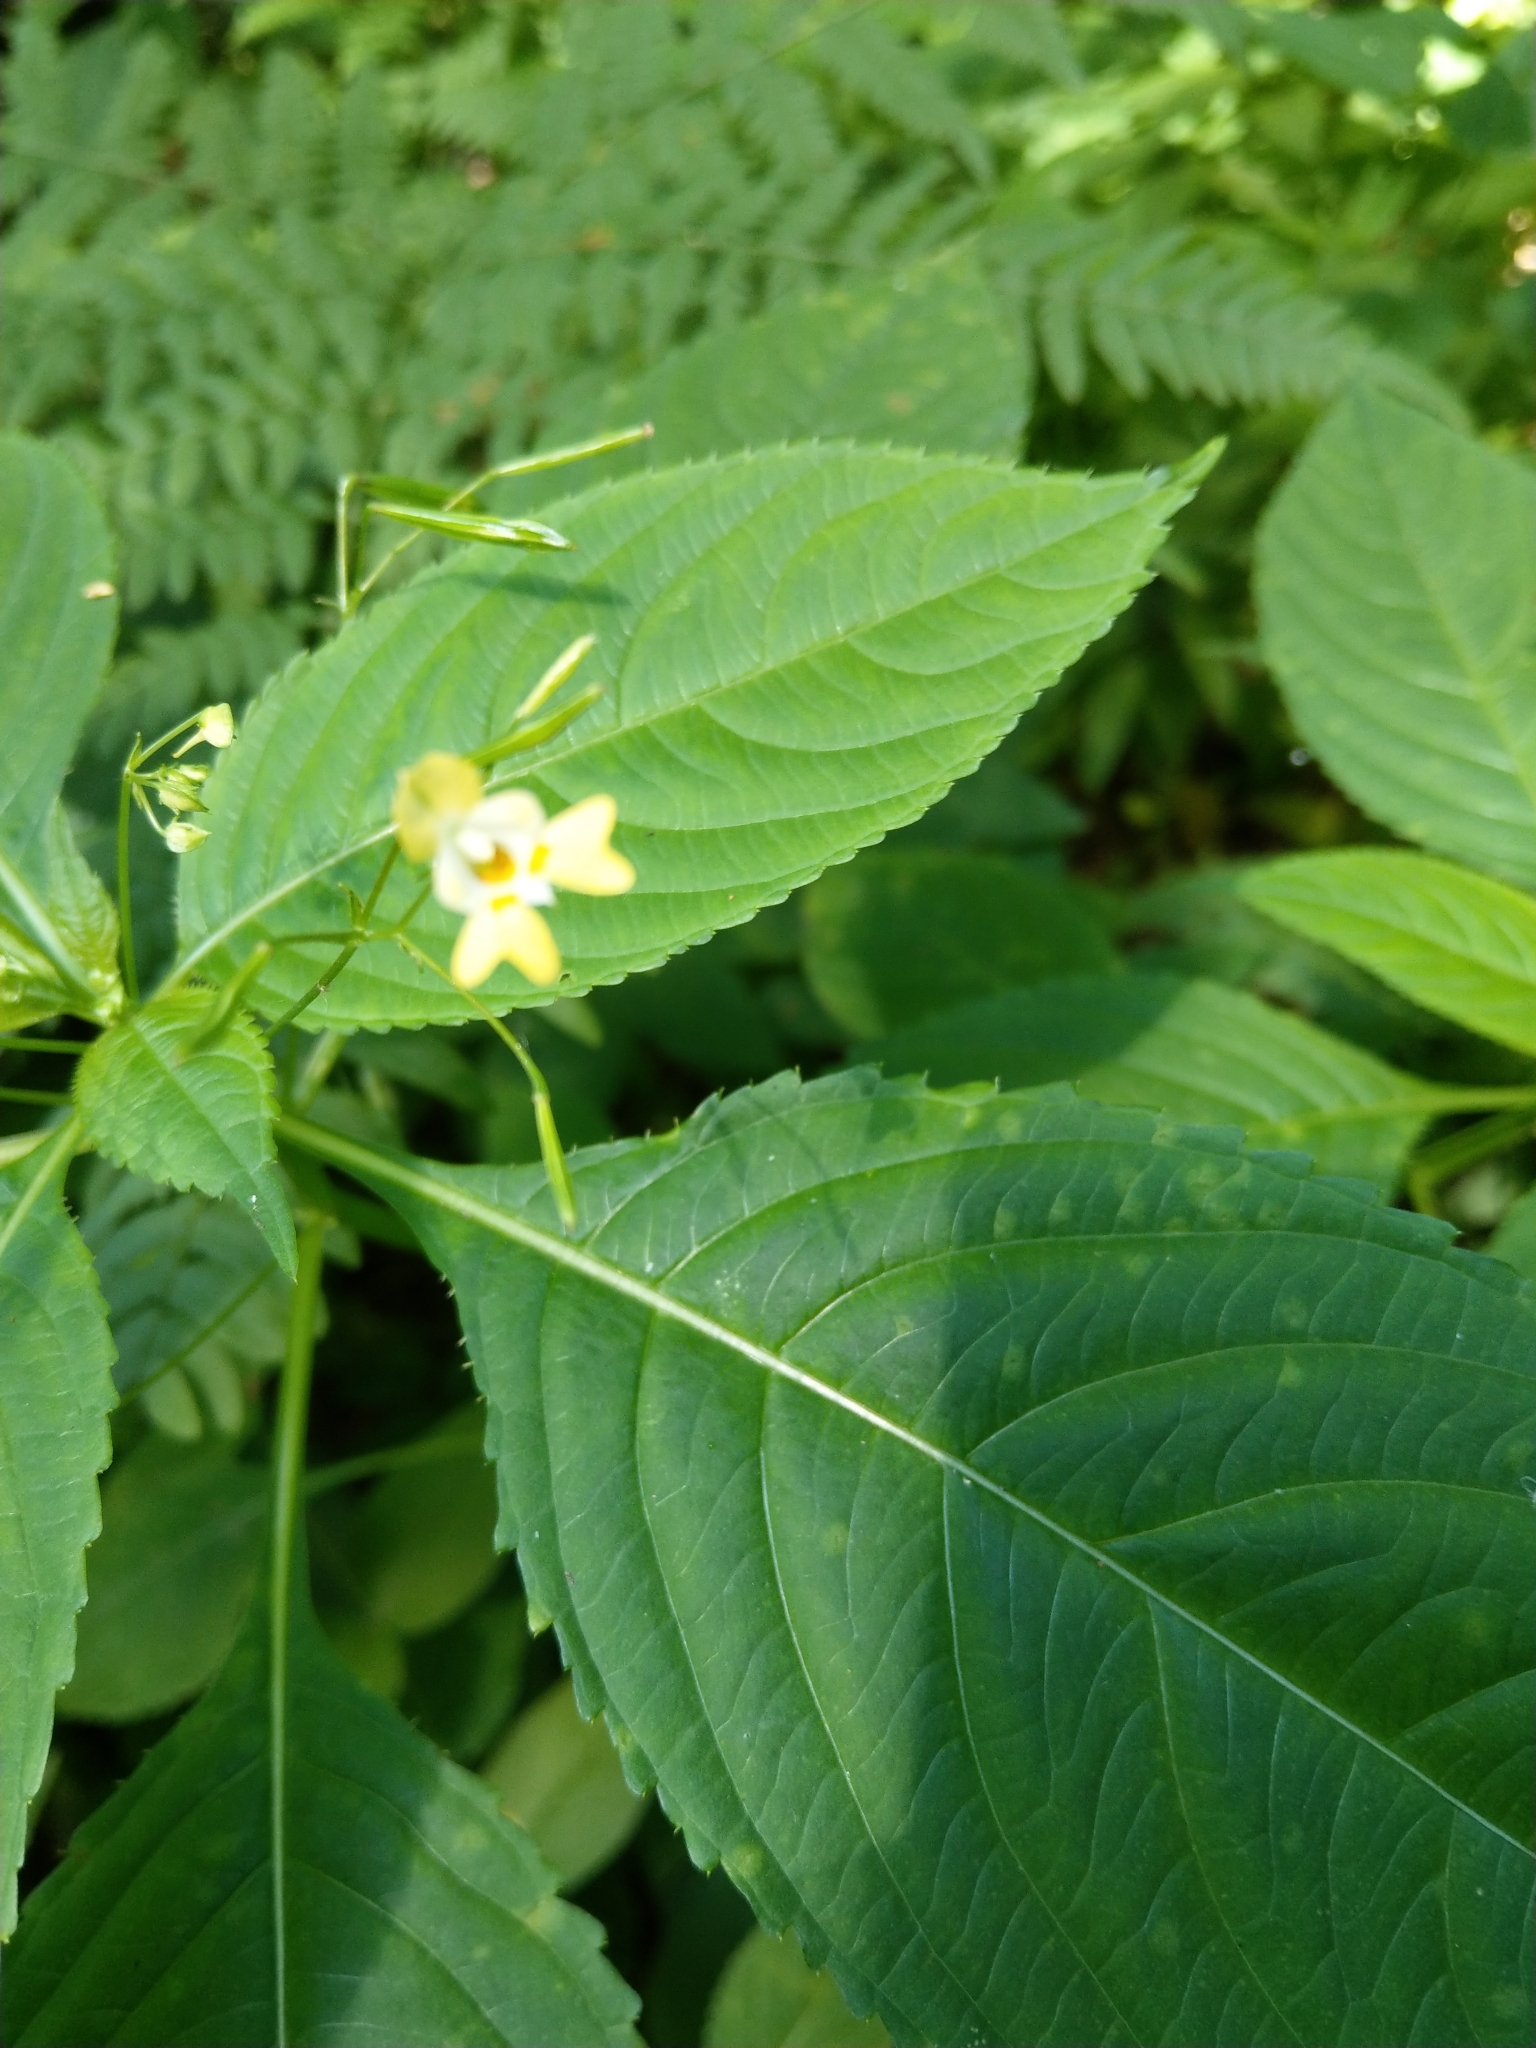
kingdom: Plantae
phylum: Tracheophyta
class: Magnoliopsida
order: Ericales
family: Balsaminaceae
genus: Impatiens
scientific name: Impatiens parviflora
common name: Small balsam
